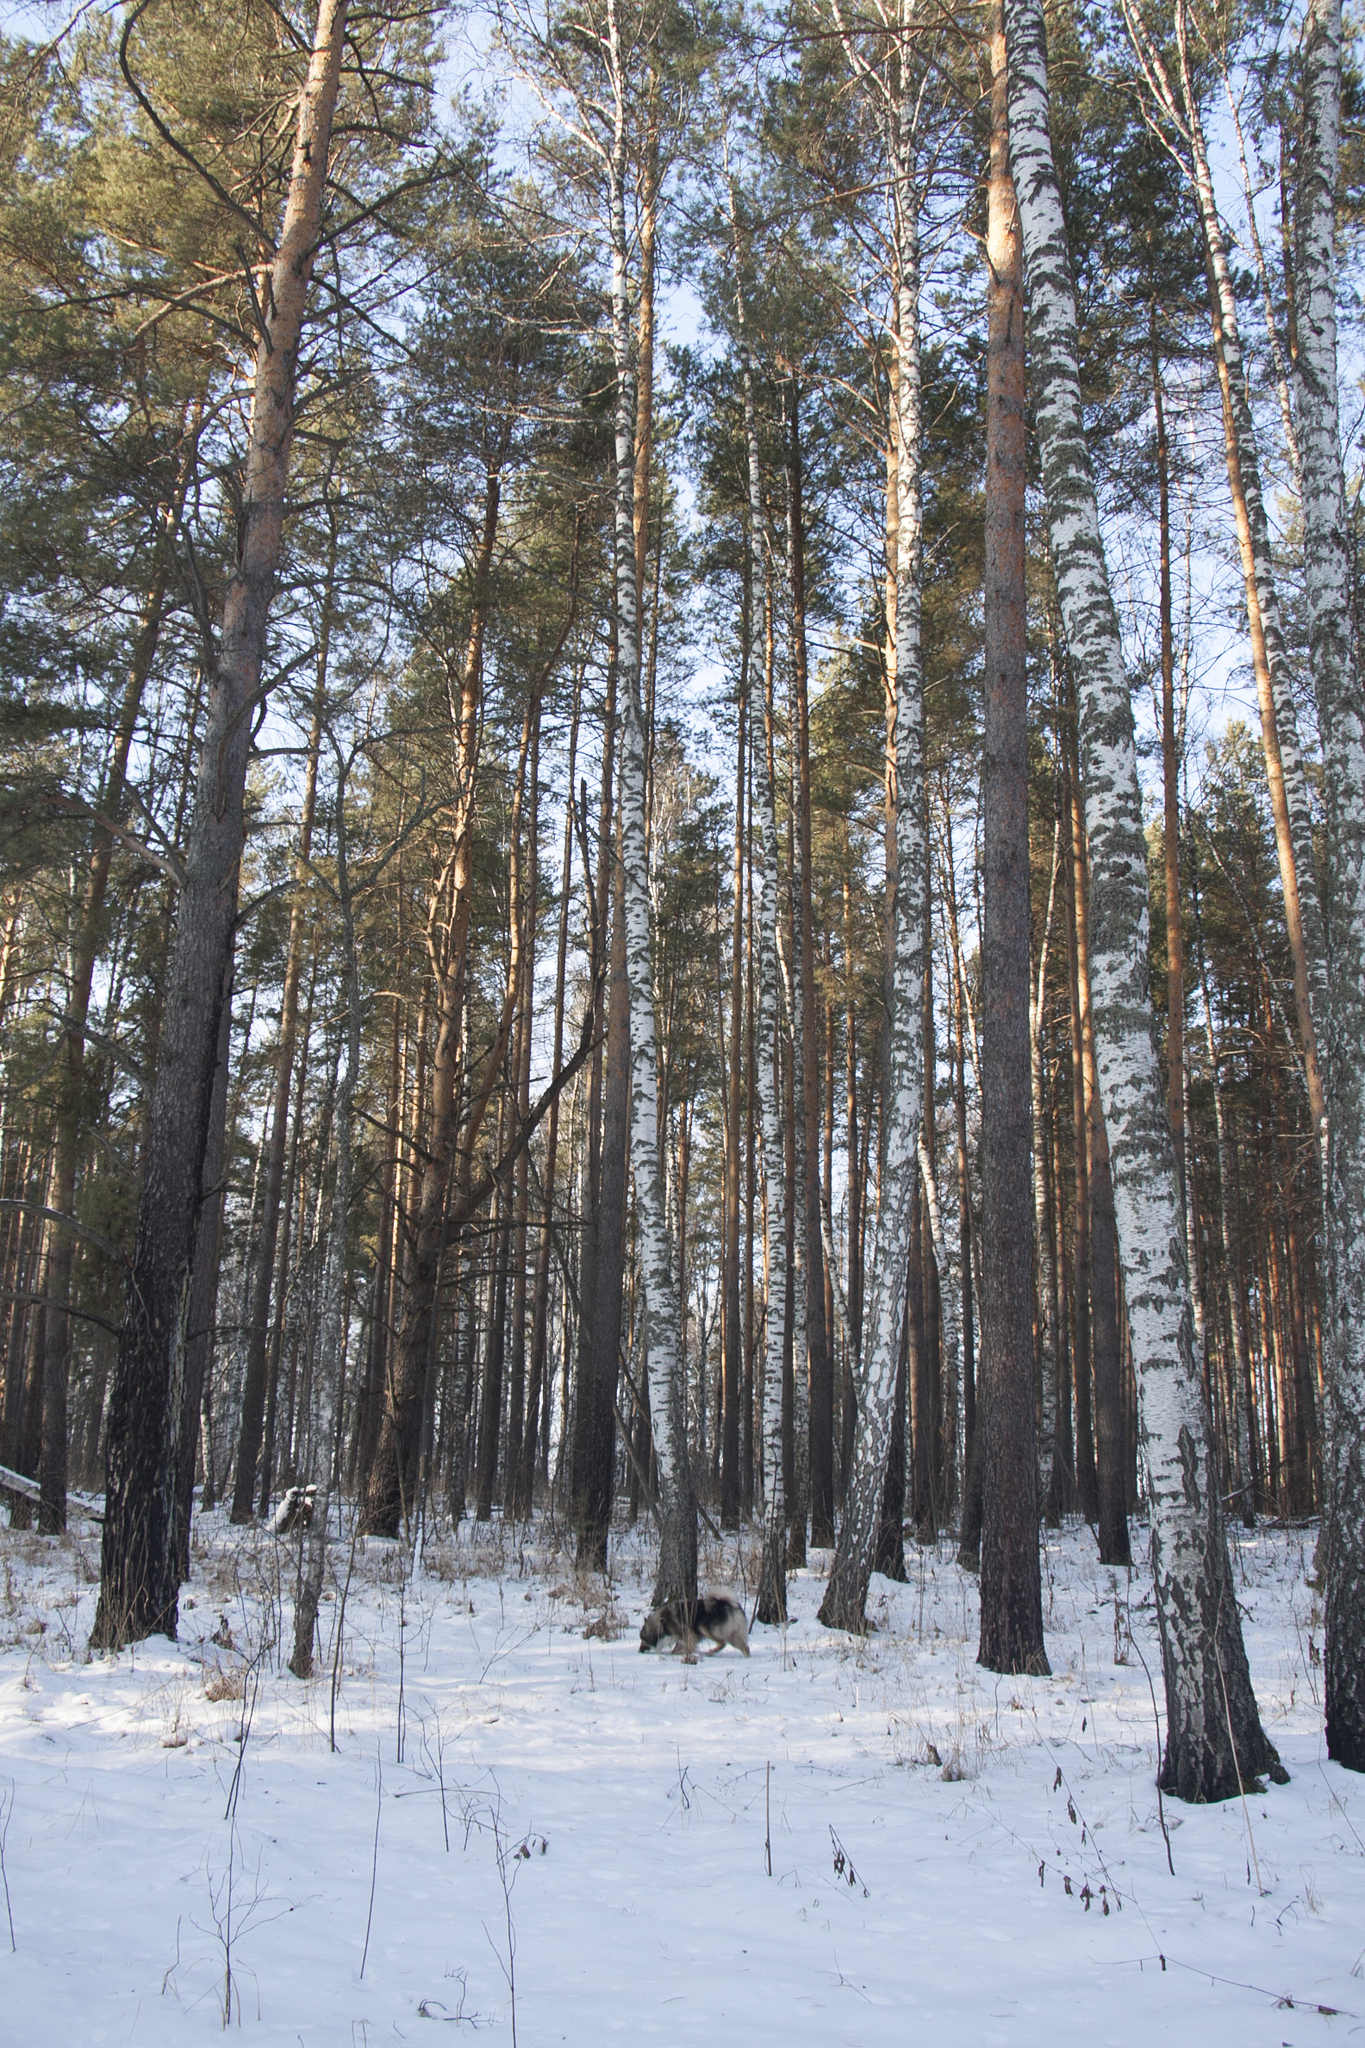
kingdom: Plantae
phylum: Tracheophyta
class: Pinopsida
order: Pinales
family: Pinaceae
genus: Pinus
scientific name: Pinus sylvestris
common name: Scots pine
